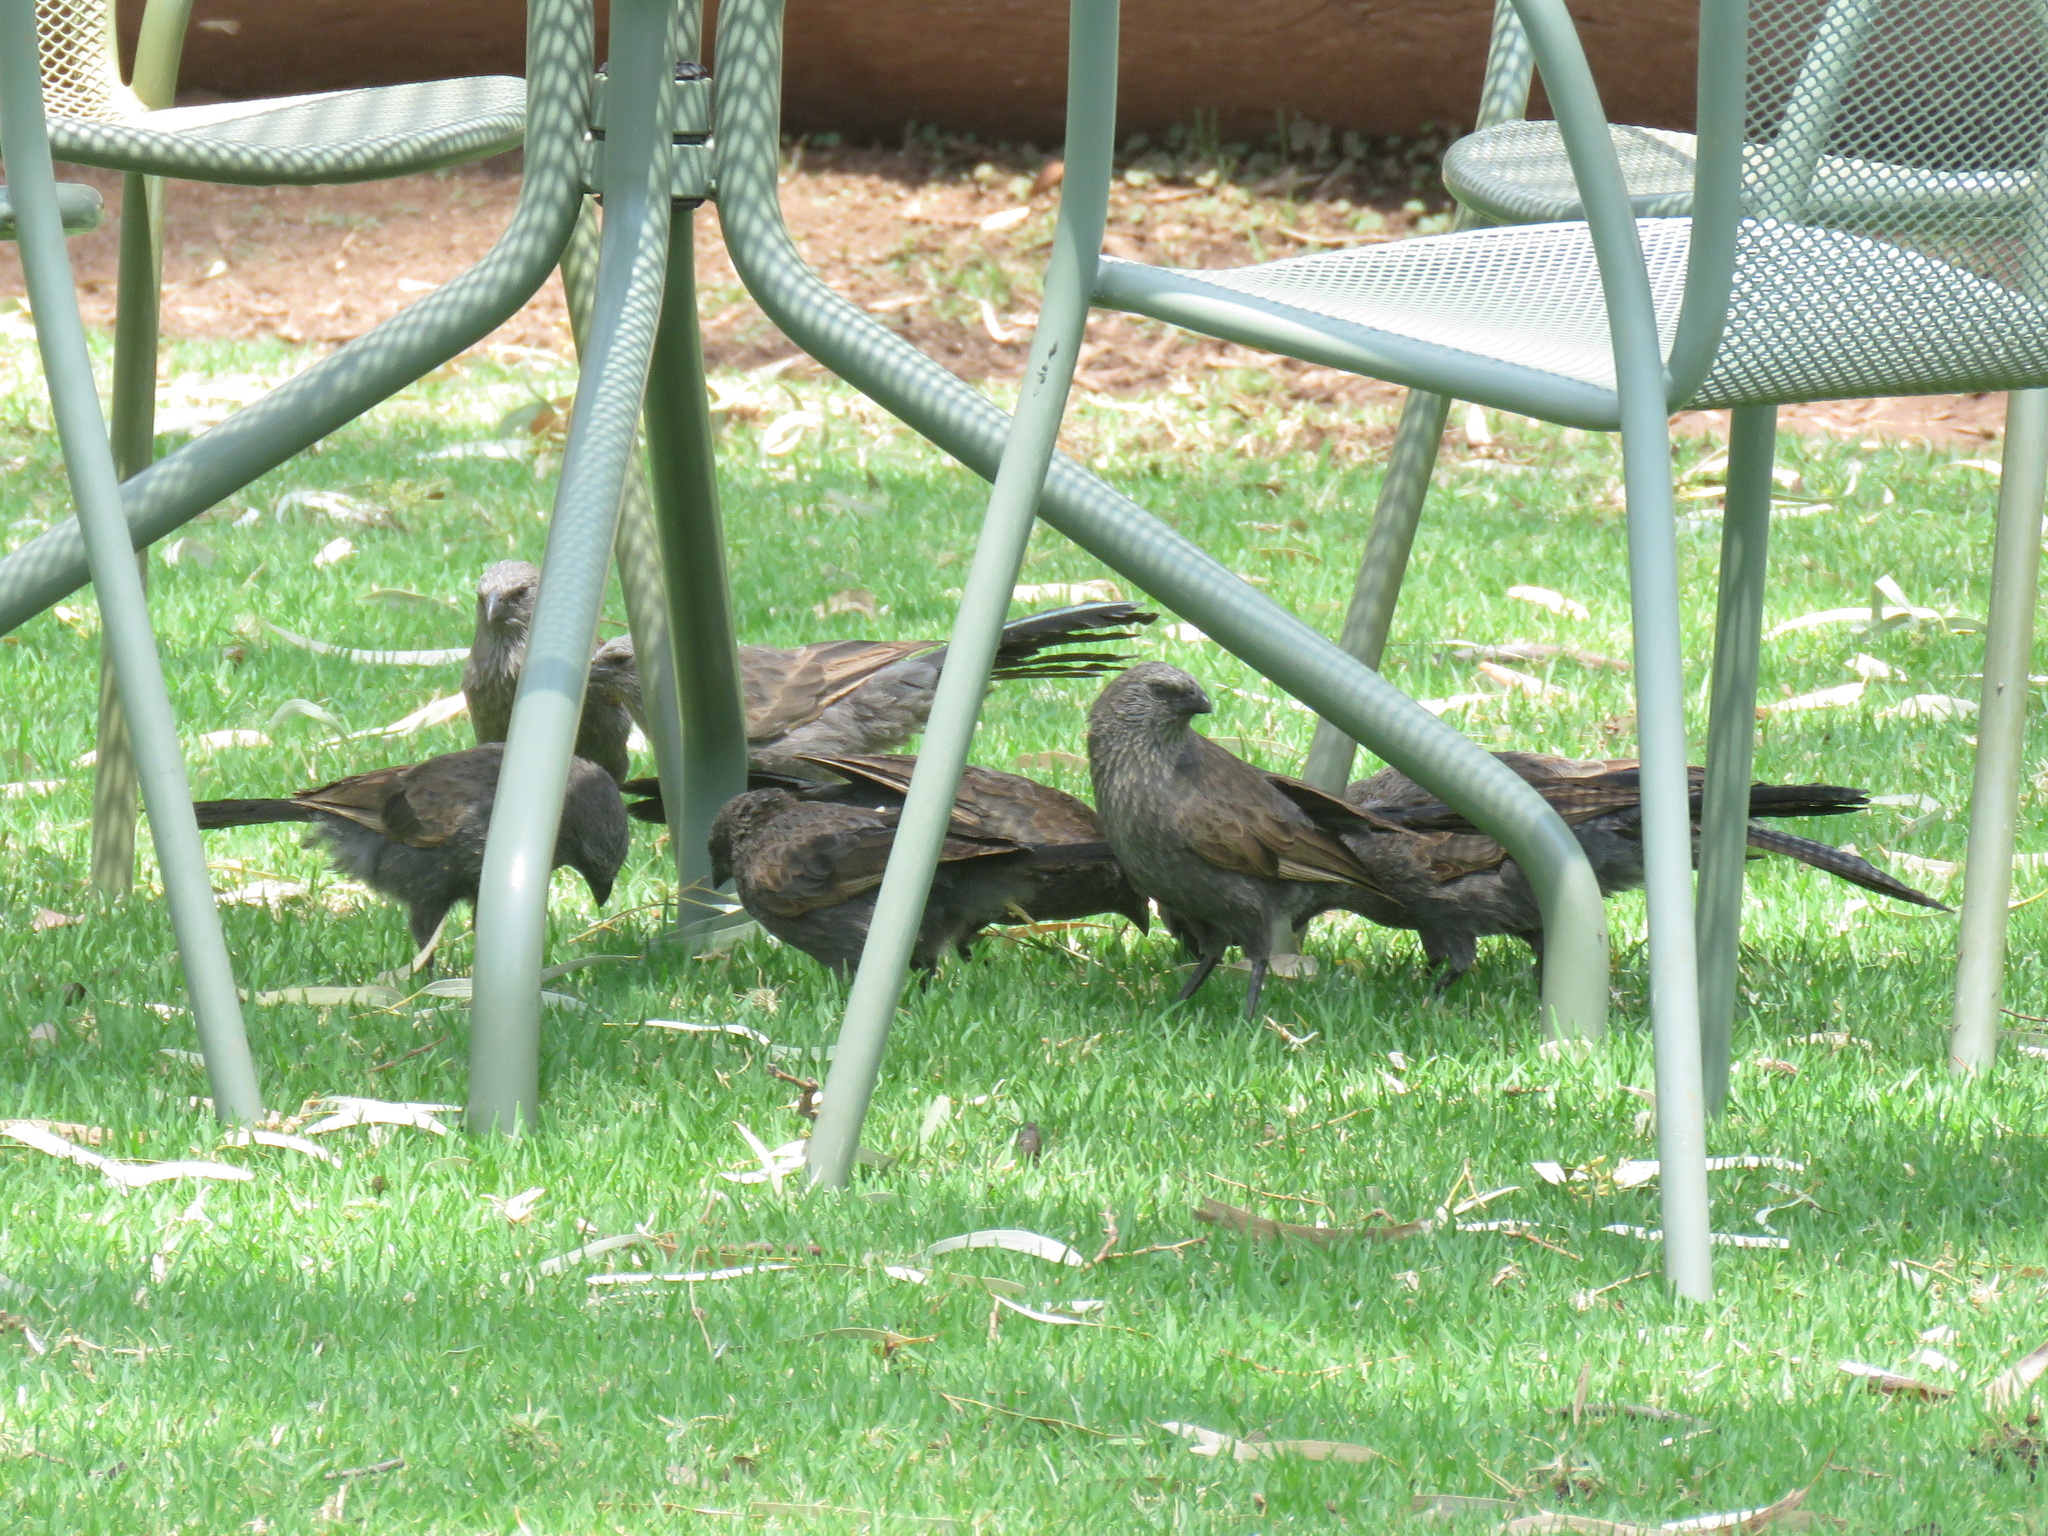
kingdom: Animalia
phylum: Chordata
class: Aves
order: Passeriformes
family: Corcoracidae
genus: Struthidea
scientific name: Struthidea cinerea
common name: Apostlebird
